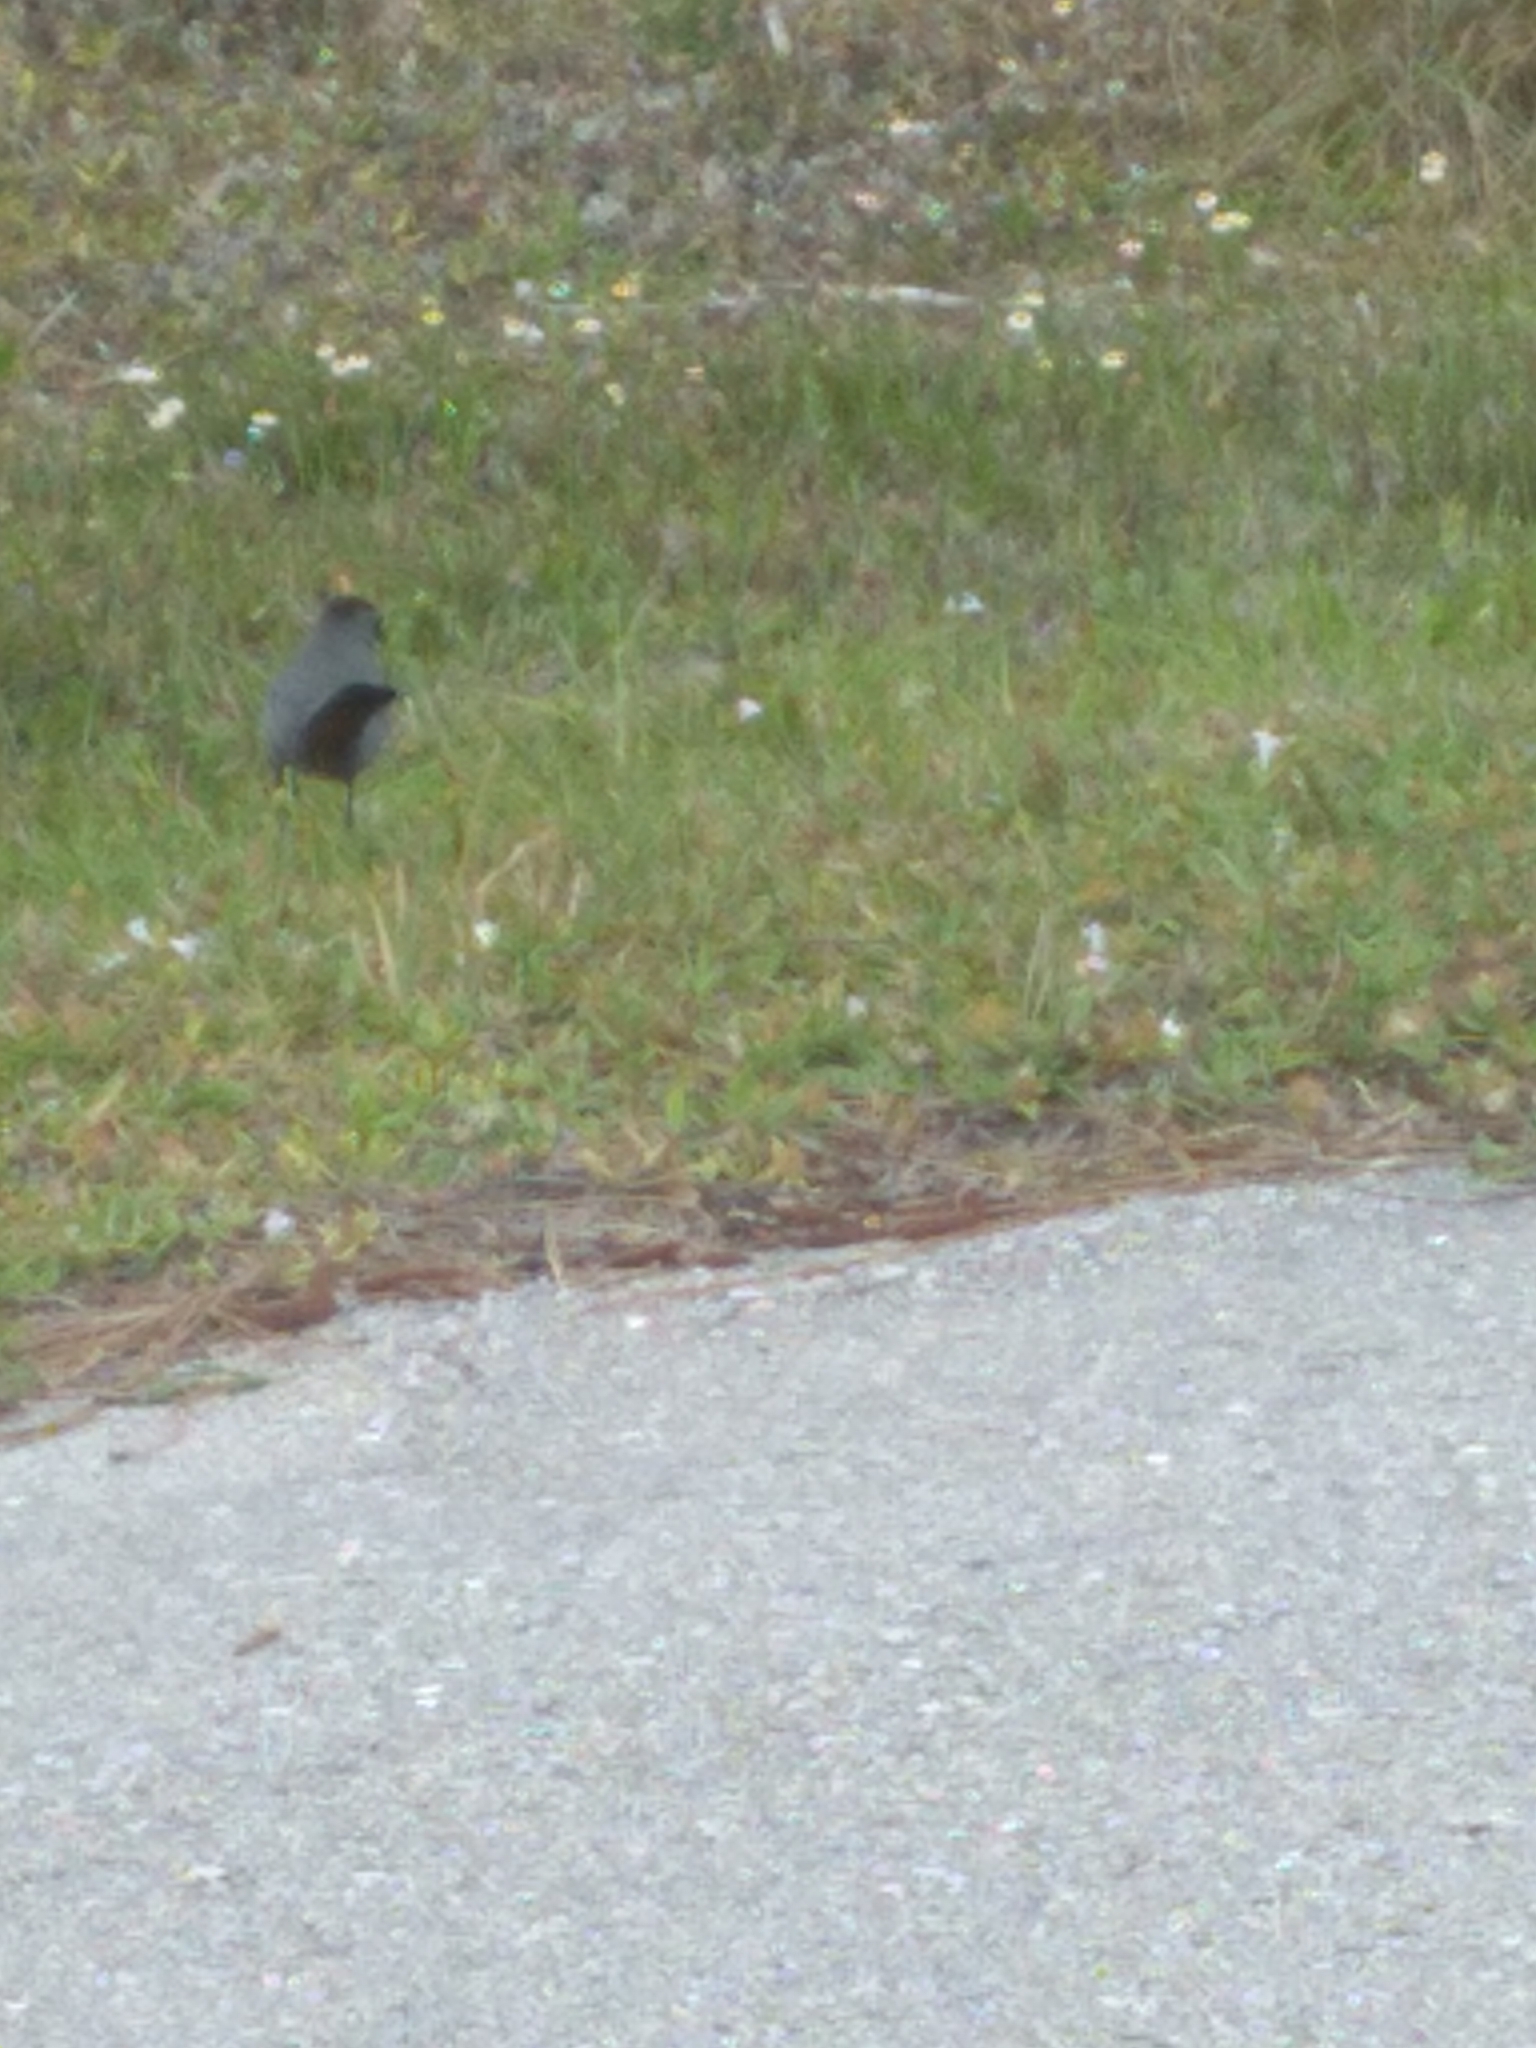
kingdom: Animalia
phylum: Chordata
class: Aves
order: Passeriformes
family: Mimidae
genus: Dumetella
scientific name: Dumetella carolinensis
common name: Gray catbird
